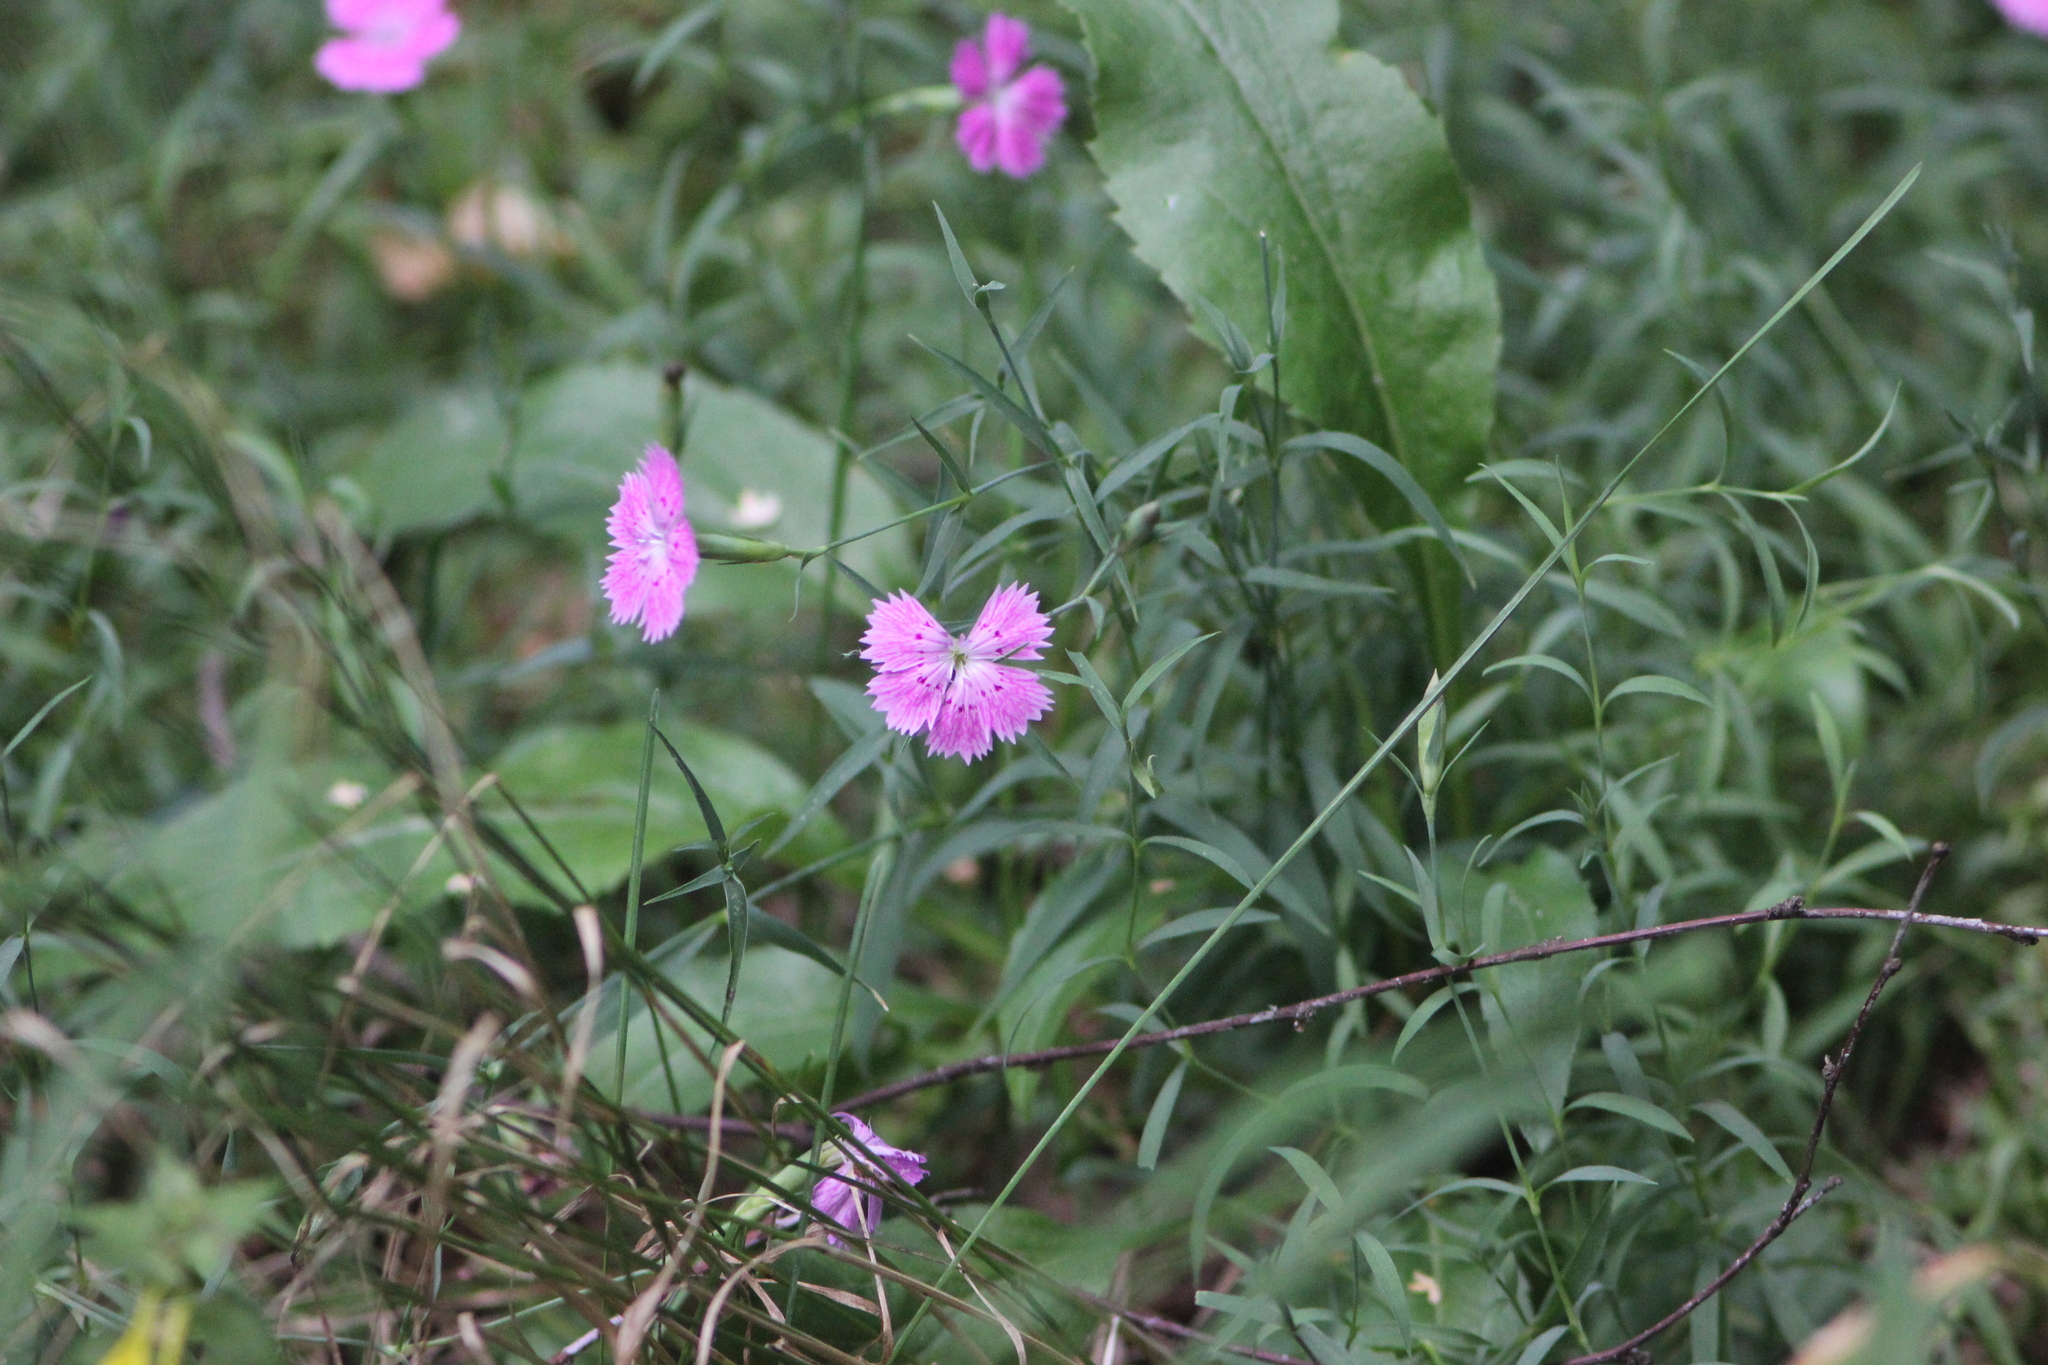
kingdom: Plantae
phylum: Tracheophyta
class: Magnoliopsida
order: Caryophyllales
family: Caryophyllaceae
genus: Dianthus
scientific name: Dianthus chinensis
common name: Rainbow pink
